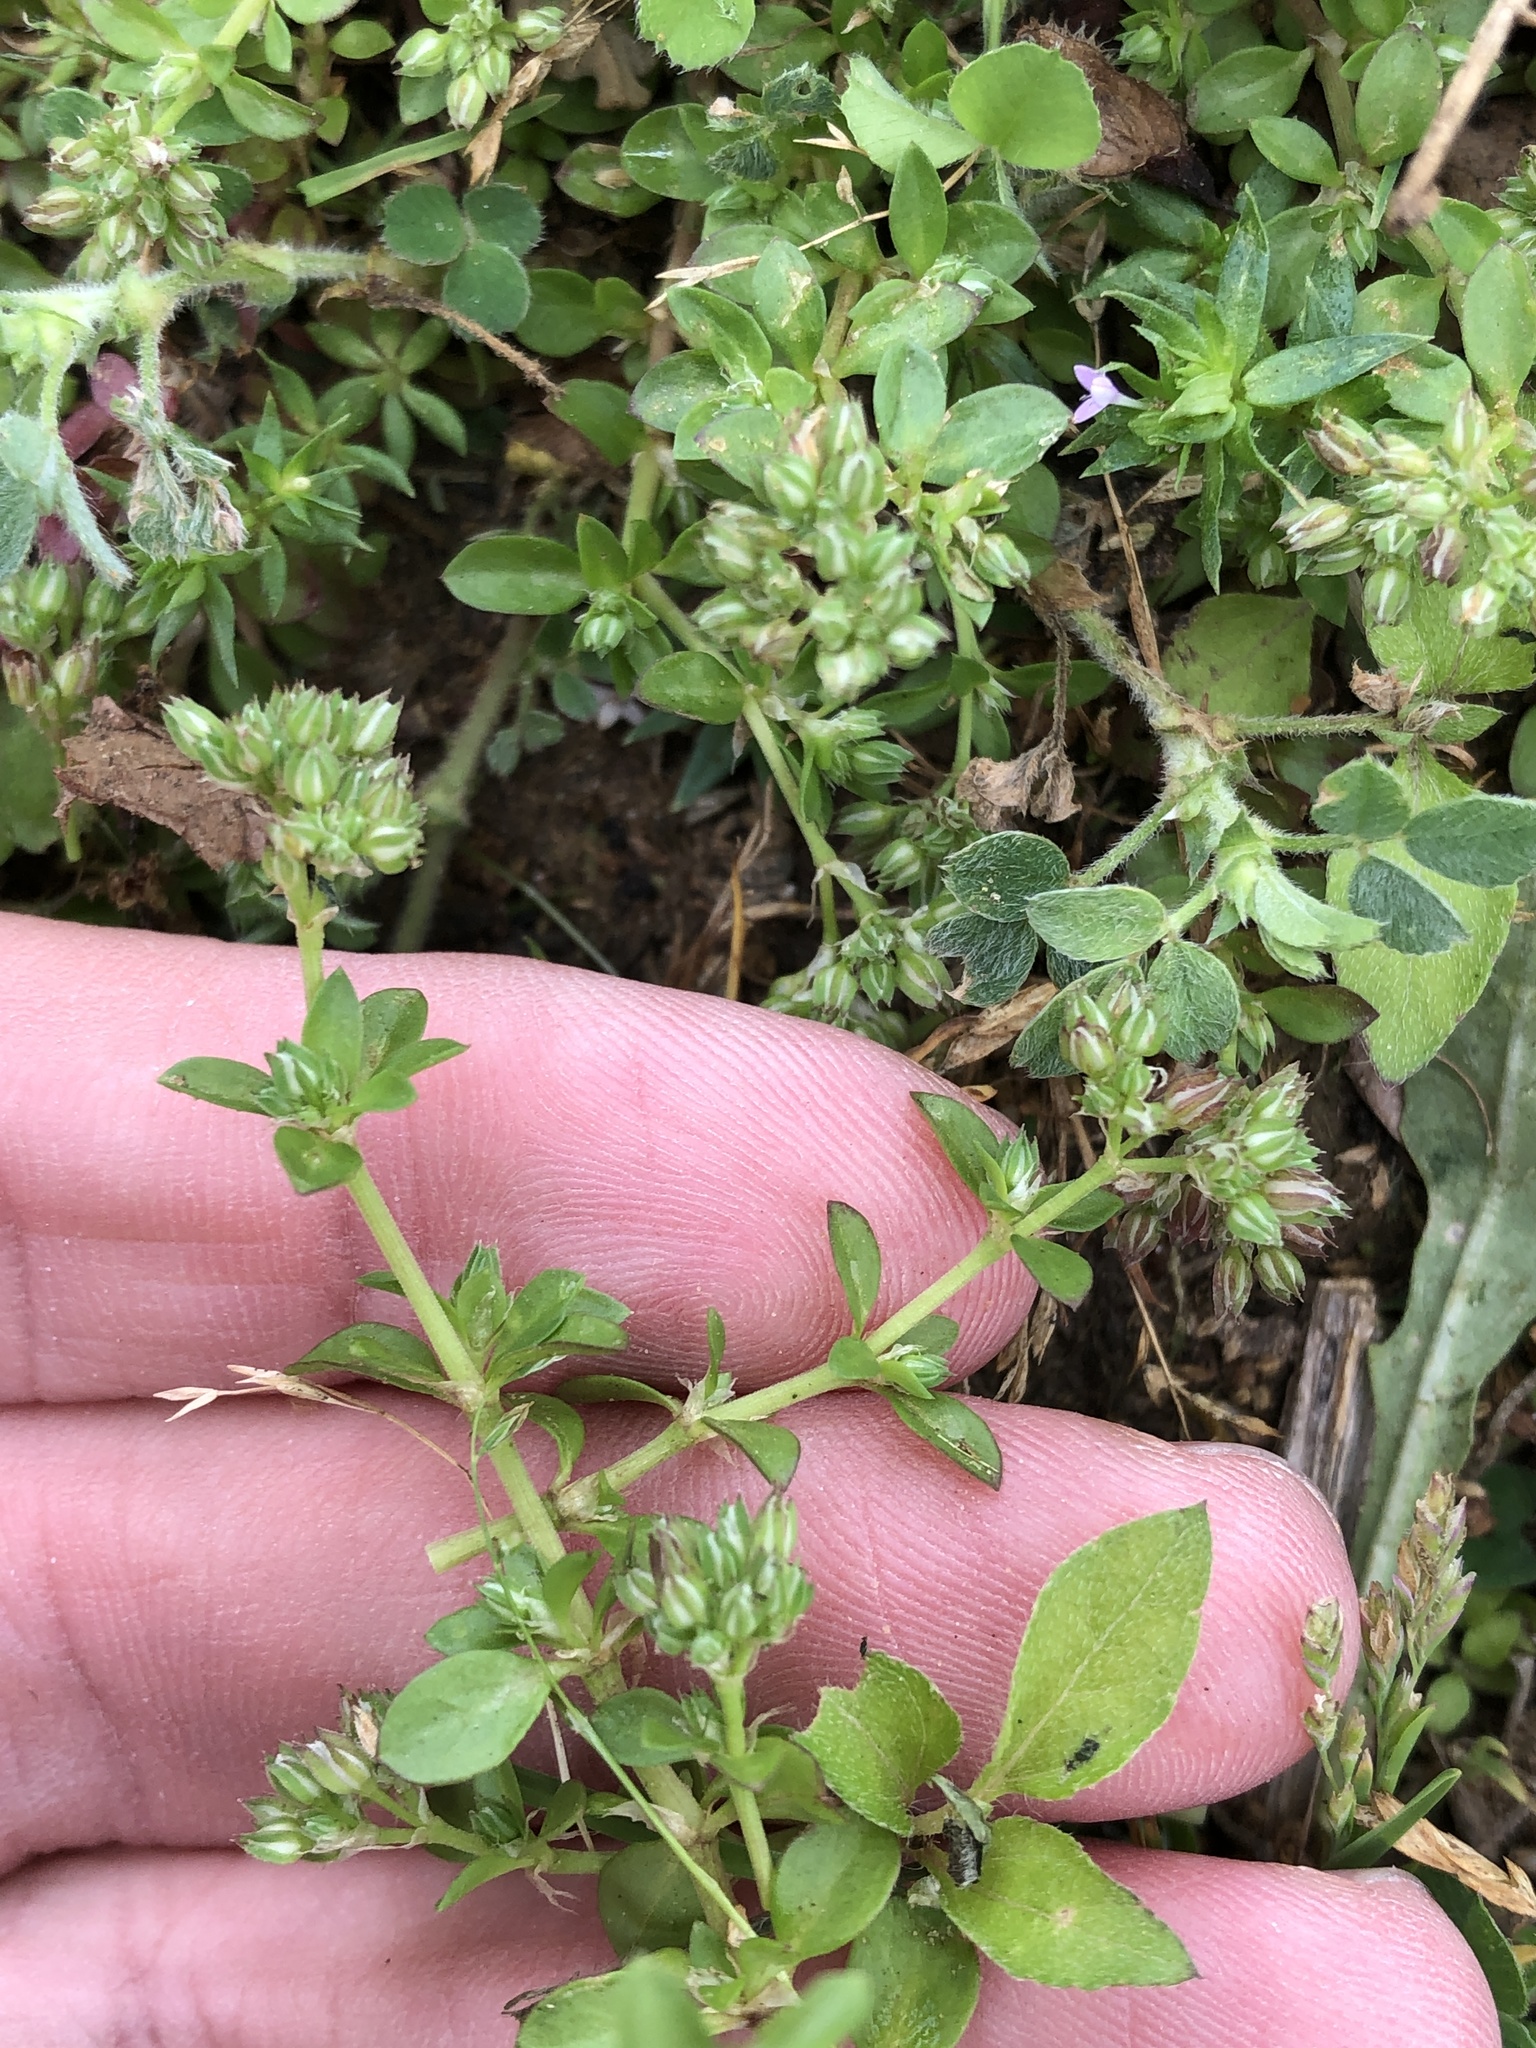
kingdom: Plantae
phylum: Tracheophyta
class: Magnoliopsida
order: Caryophyllales
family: Caryophyllaceae
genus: Polycarpon
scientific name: Polycarpon tetraphyllum
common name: Four-leaved all-seed
